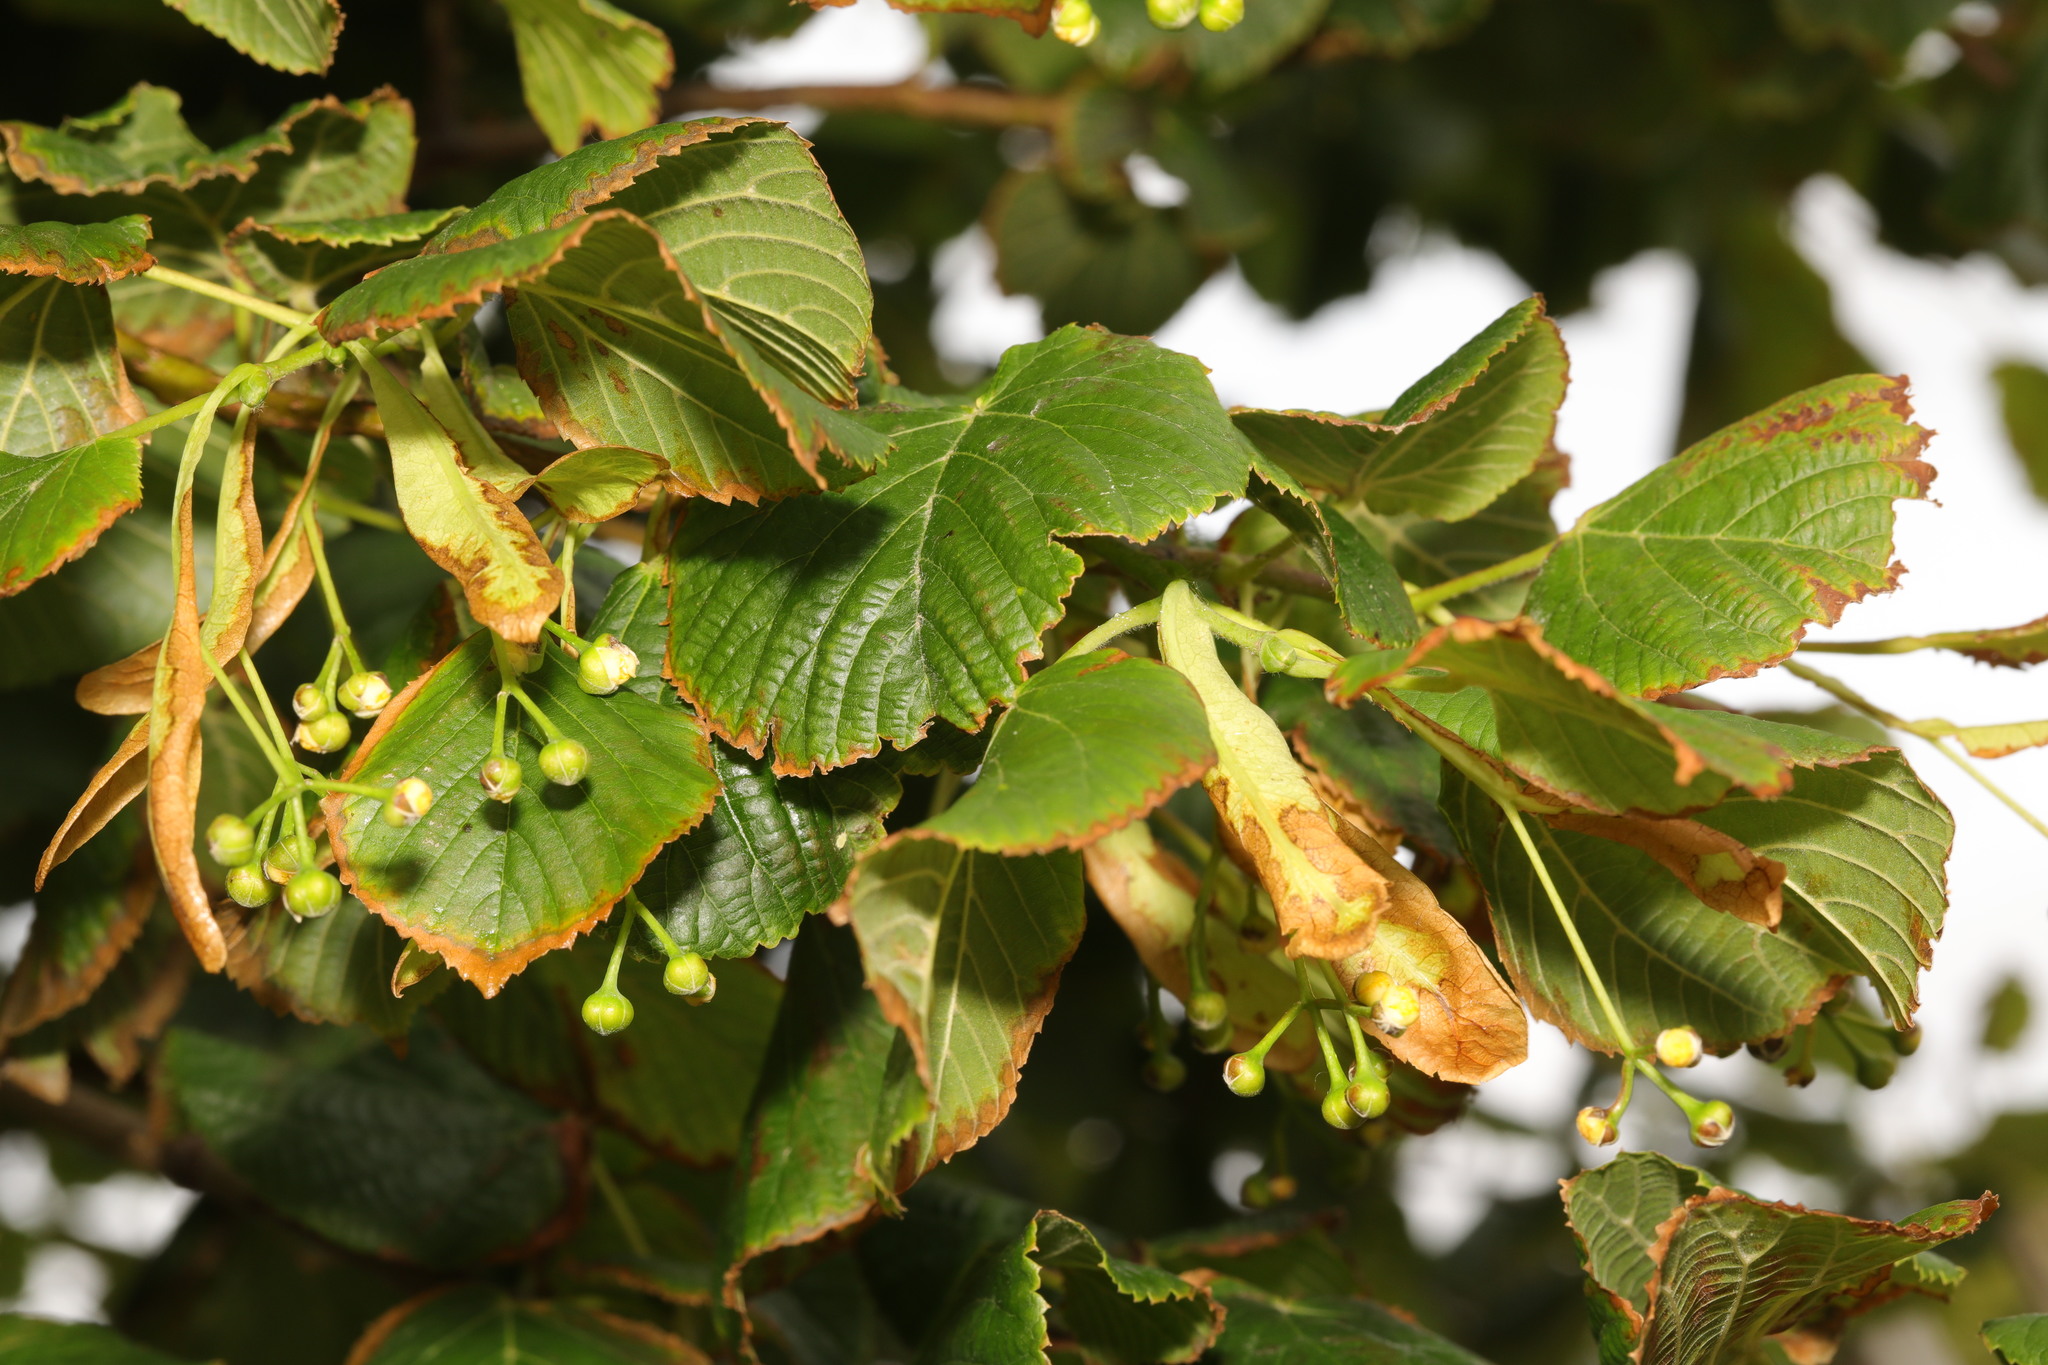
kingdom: Plantae
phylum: Tracheophyta
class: Magnoliopsida
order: Malvales
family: Malvaceae
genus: Tilia
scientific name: Tilia europaea
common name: European linden
